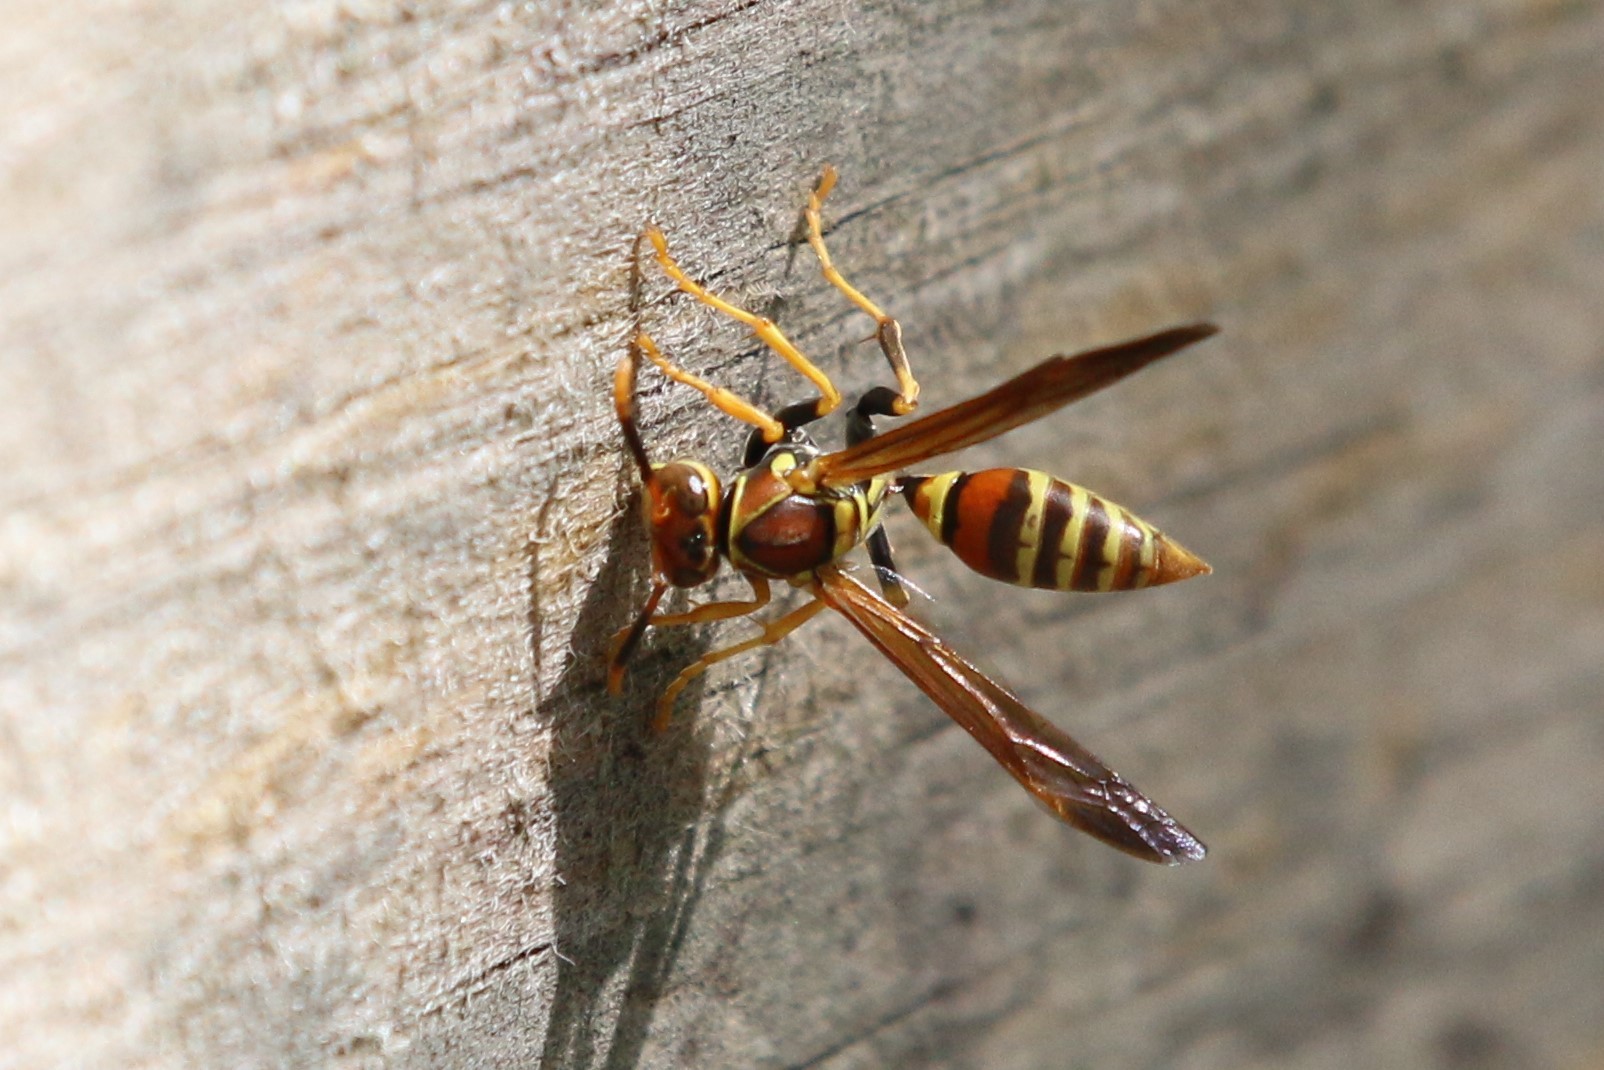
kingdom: Animalia
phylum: Arthropoda
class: Insecta
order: Hymenoptera
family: Eumenidae
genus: Polistes
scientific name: Polistes exclamans
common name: Paper wasp
